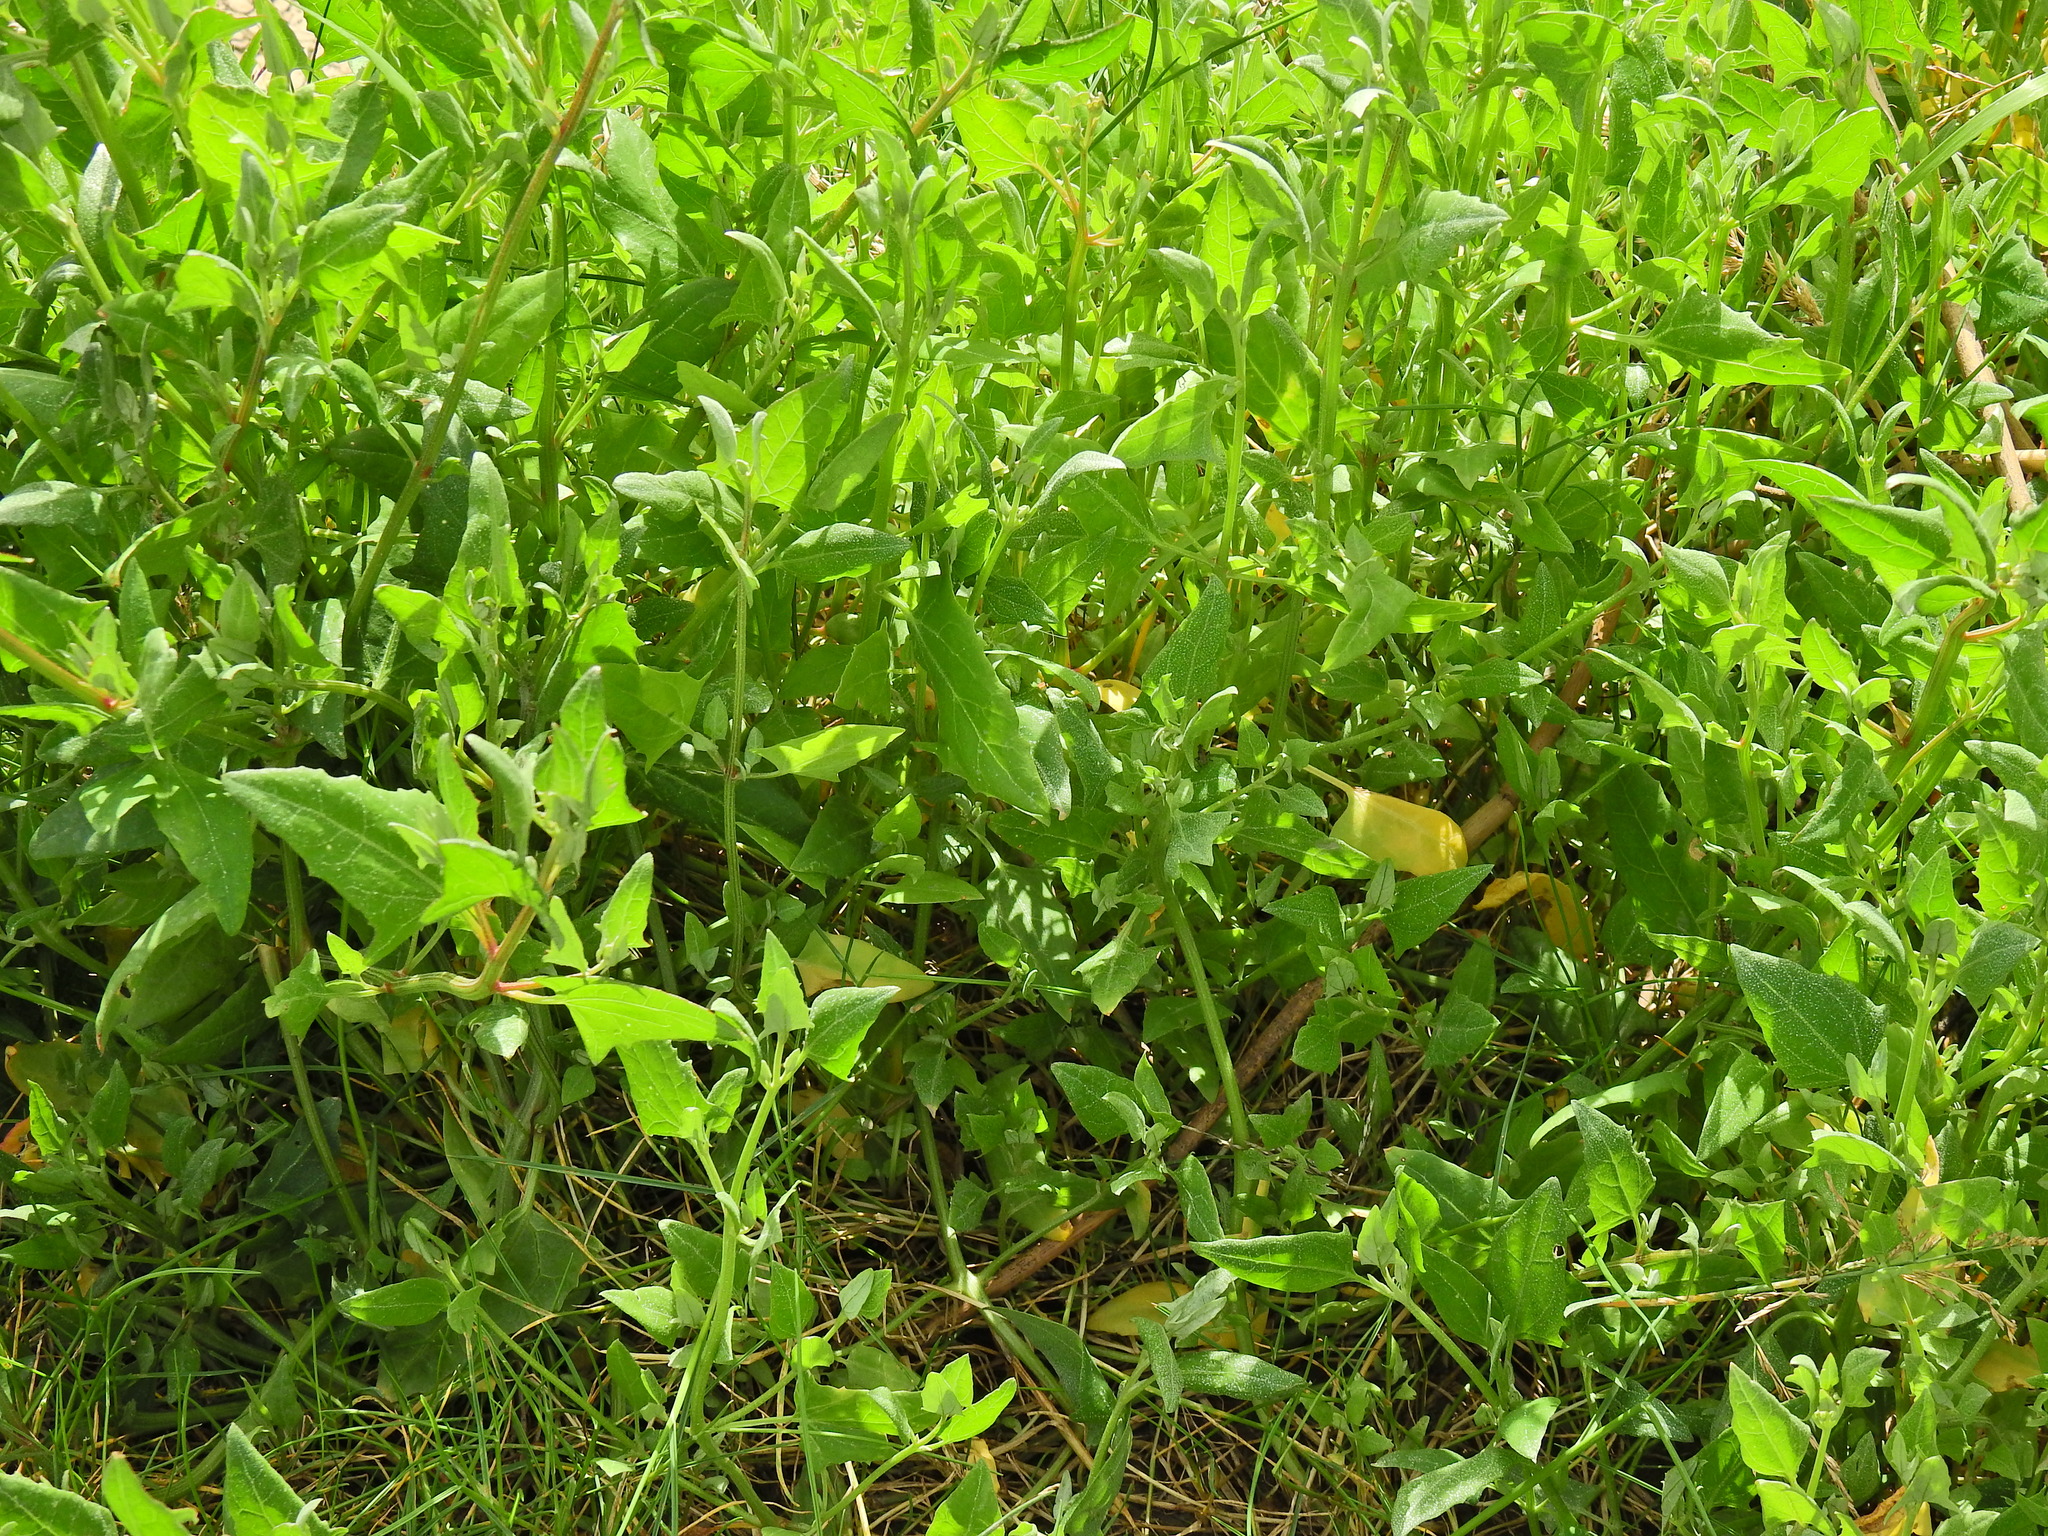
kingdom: Plantae
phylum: Tracheophyta
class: Magnoliopsida
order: Caryophyllales
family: Amaranthaceae
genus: Atriplex
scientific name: Atriplex prostrata
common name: Spear-leaved orache
